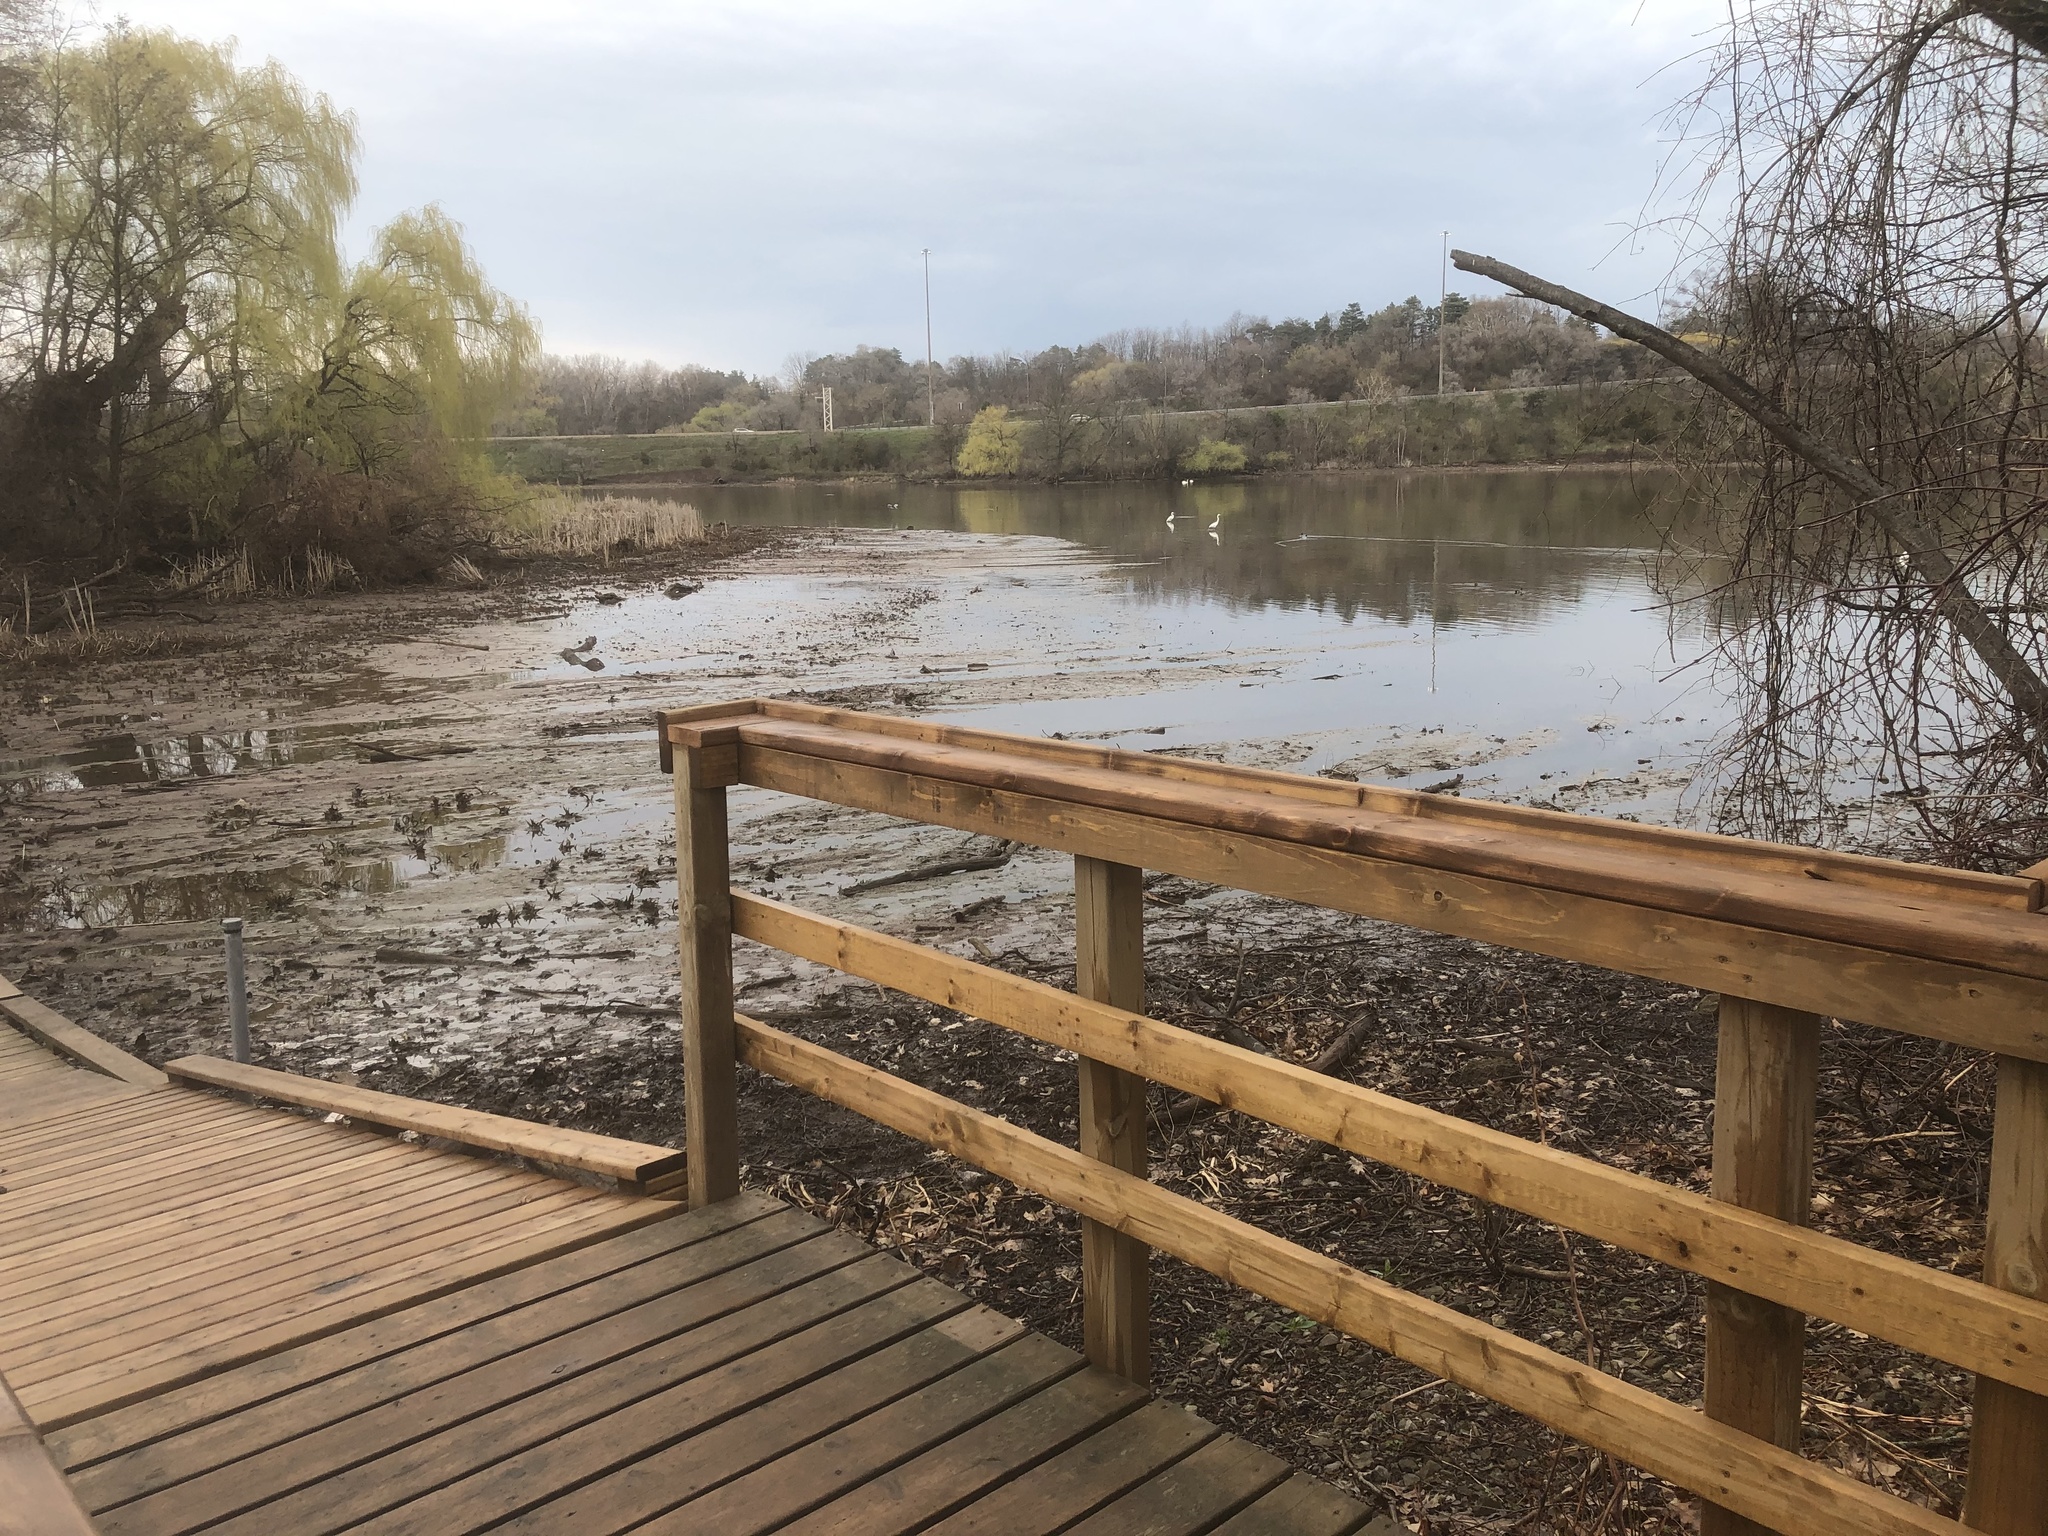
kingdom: Animalia
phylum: Chordata
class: Aves
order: Pelecaniformes
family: Ardeidae
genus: Ardea
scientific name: Ardea alba
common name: Great egret
